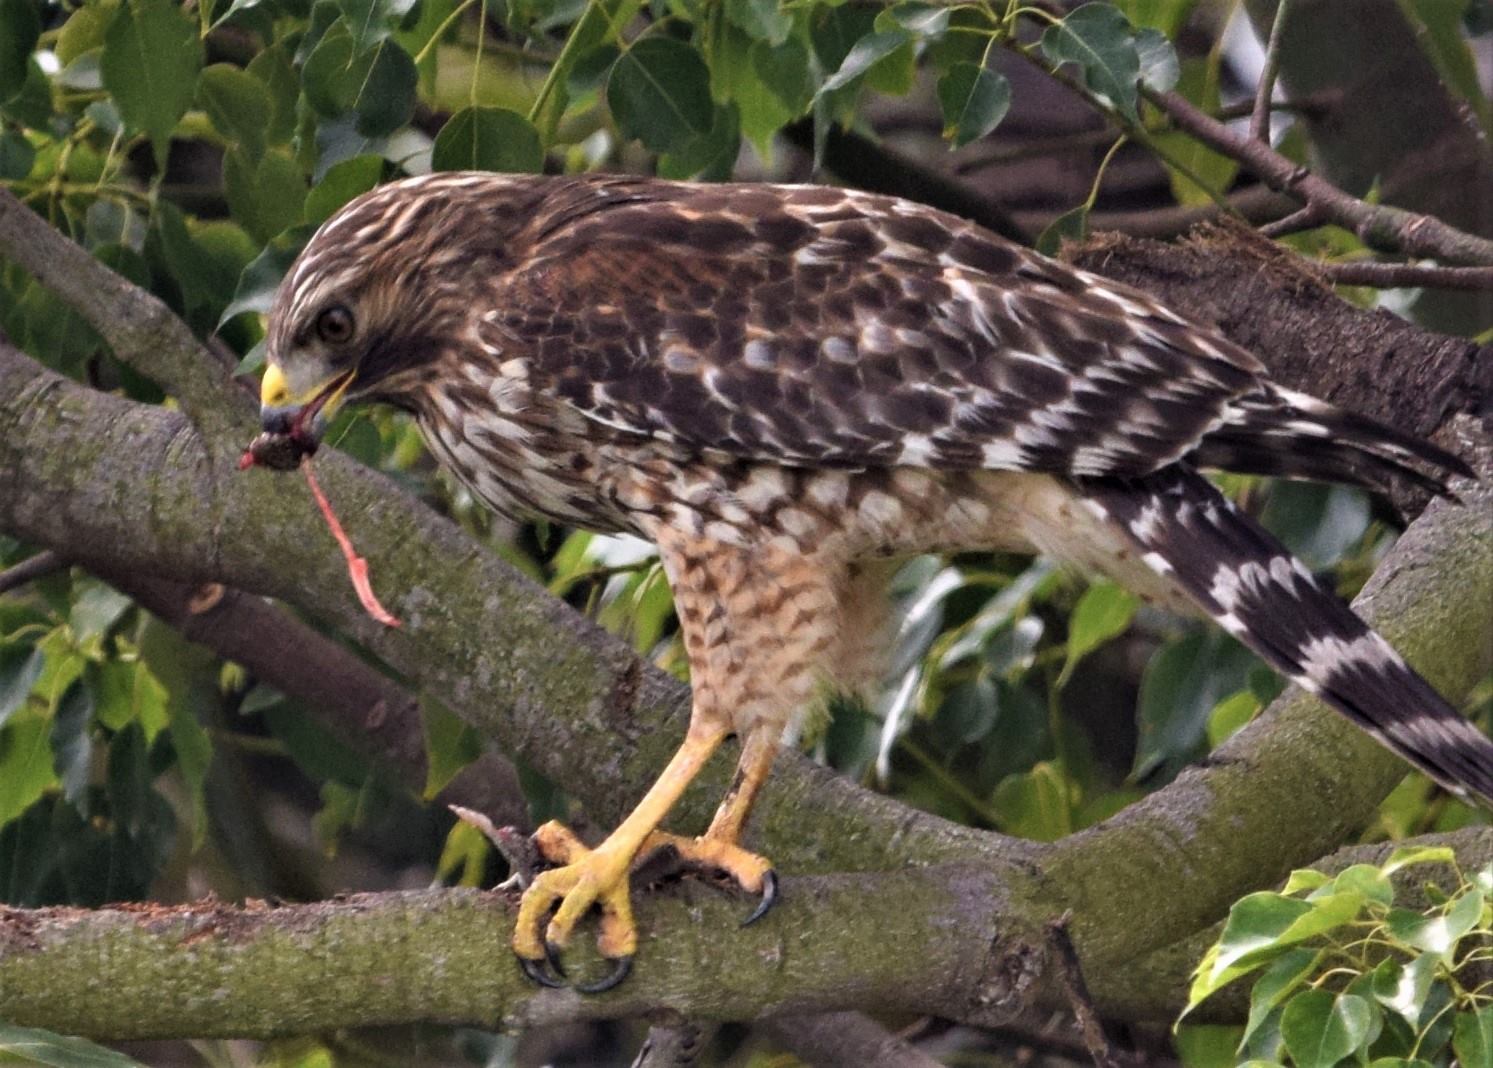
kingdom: Animalia
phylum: Chordata
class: Aves
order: Accipitriformes
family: Accipitridae
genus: Buteo
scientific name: Buteo lineatus
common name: Red-shouldered hawk
